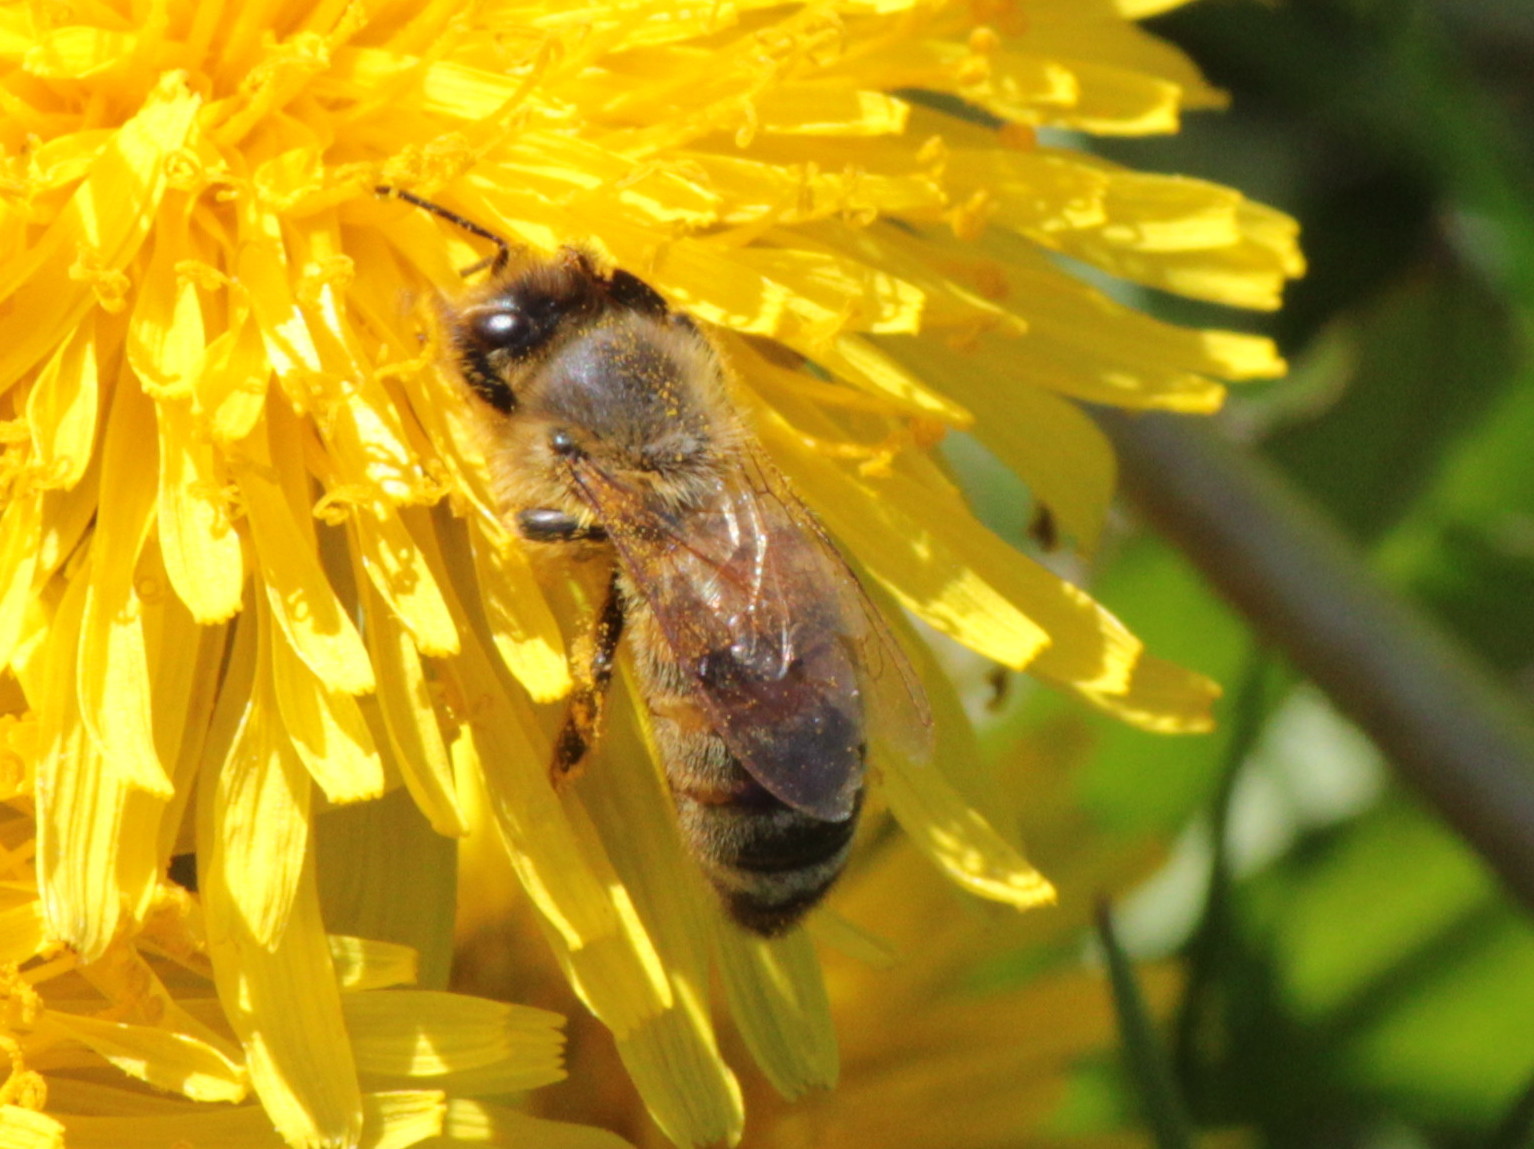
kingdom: Animalia
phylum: Arthropoda
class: Insecta
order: Hymenoptera
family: Apidae
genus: Apis
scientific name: Apis mellifera
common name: Honey bee
